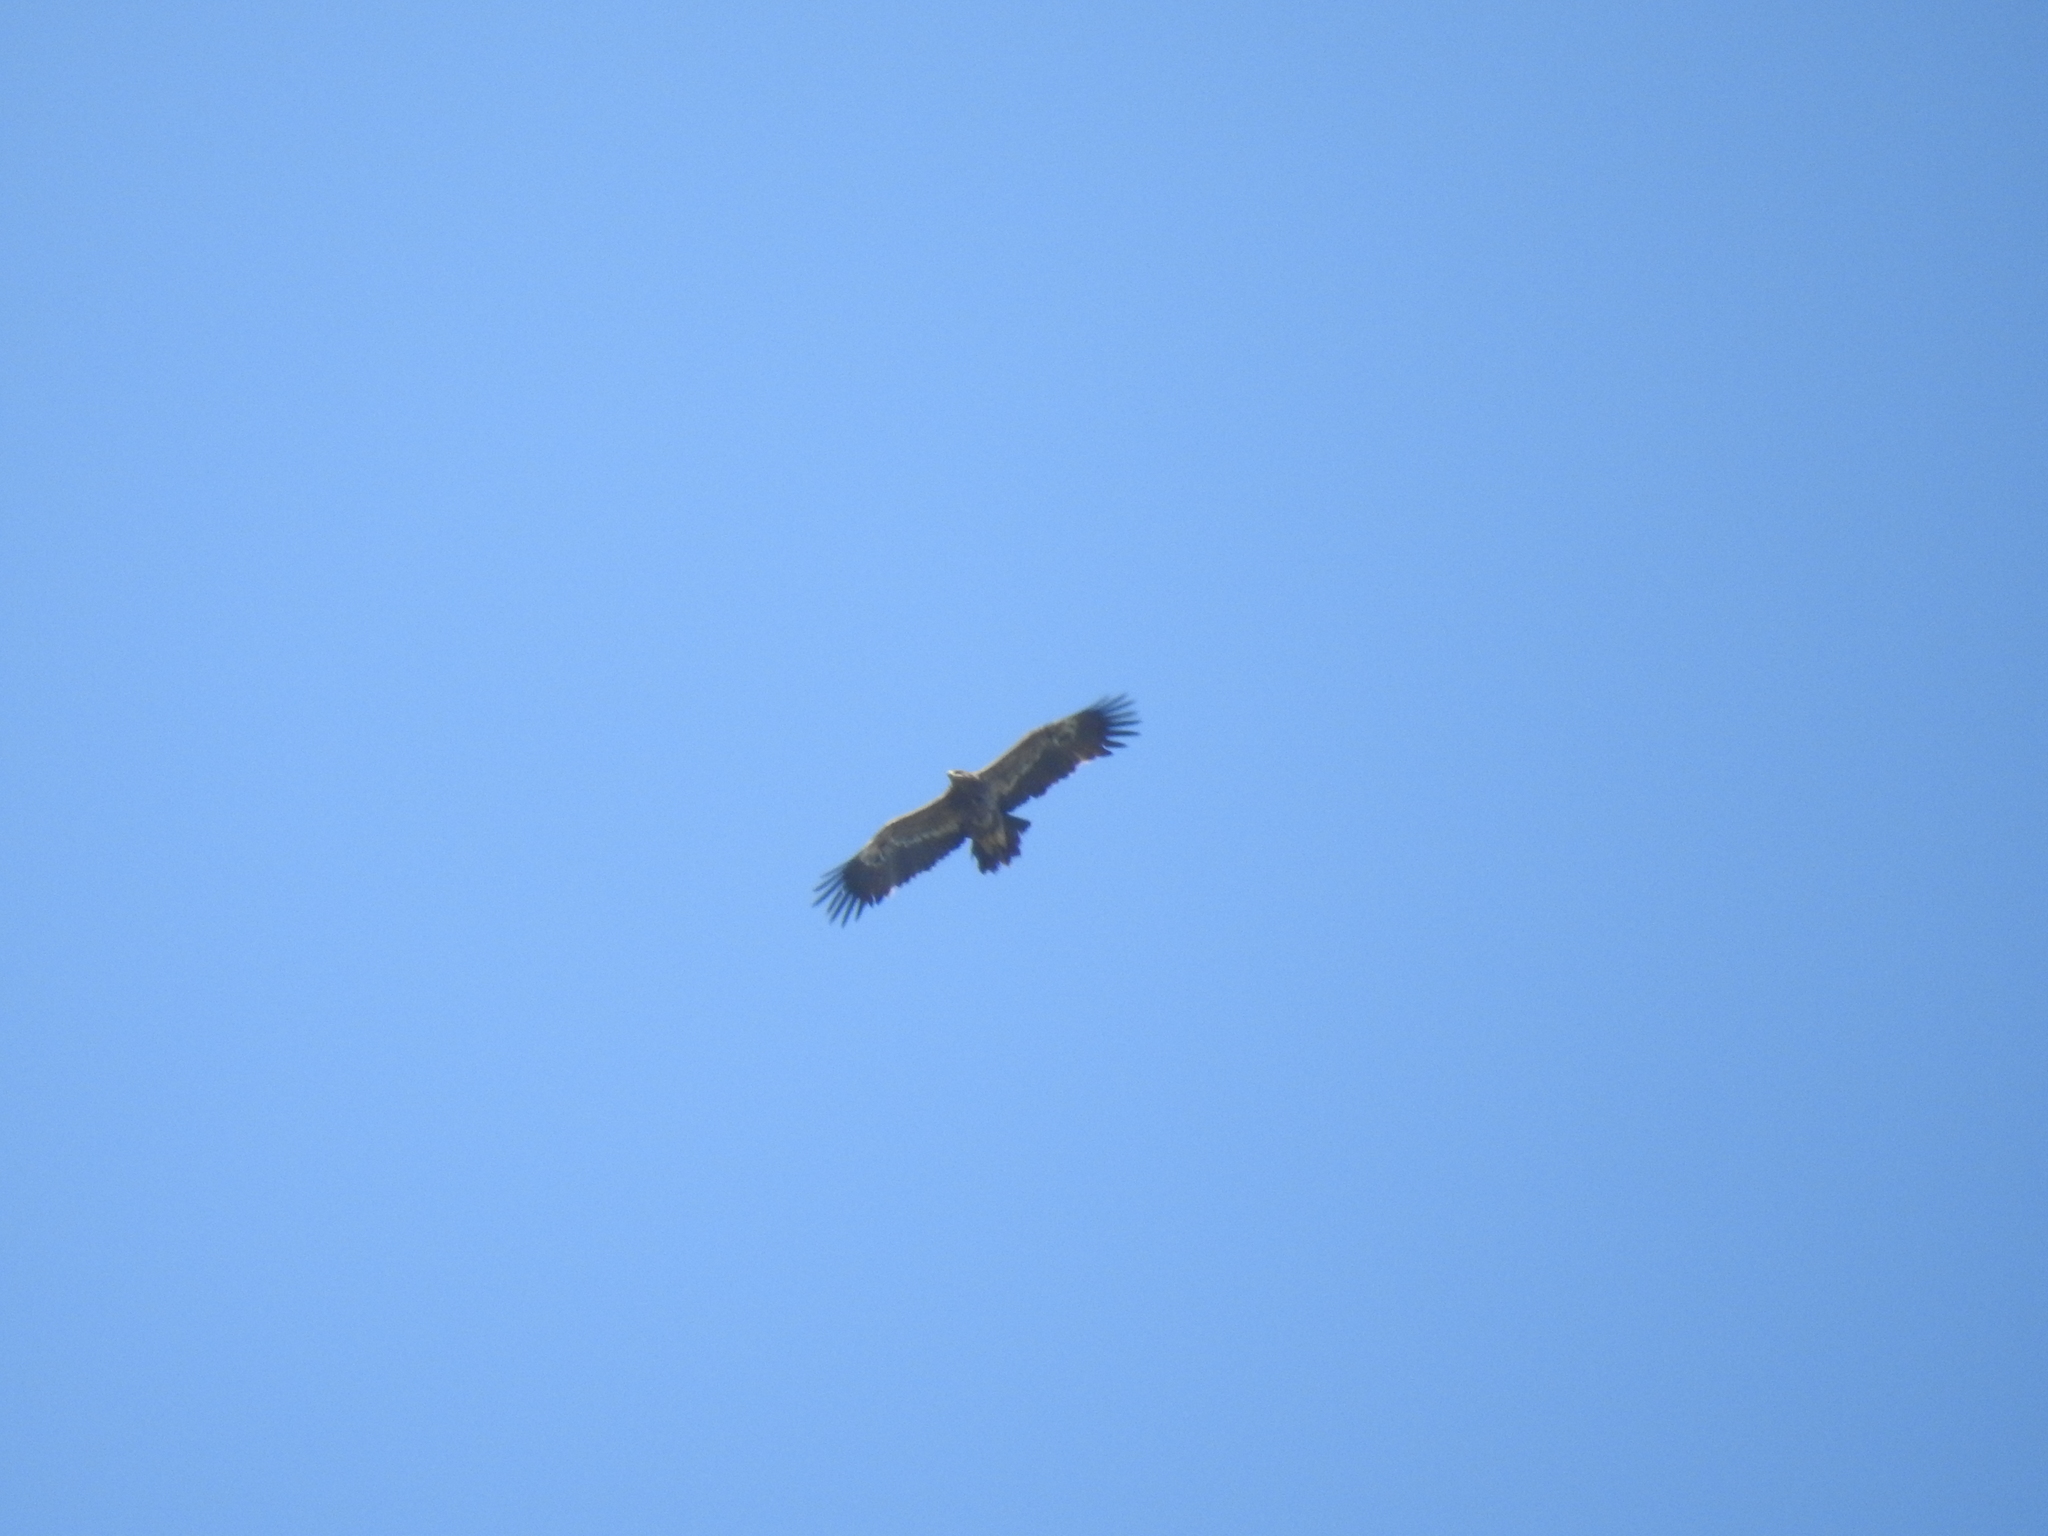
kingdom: Animalia
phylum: Chordata
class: Aves
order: Accipitriformes
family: Accipitridae
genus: Aquila
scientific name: Aquila nipalensis
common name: Steppe eagle
